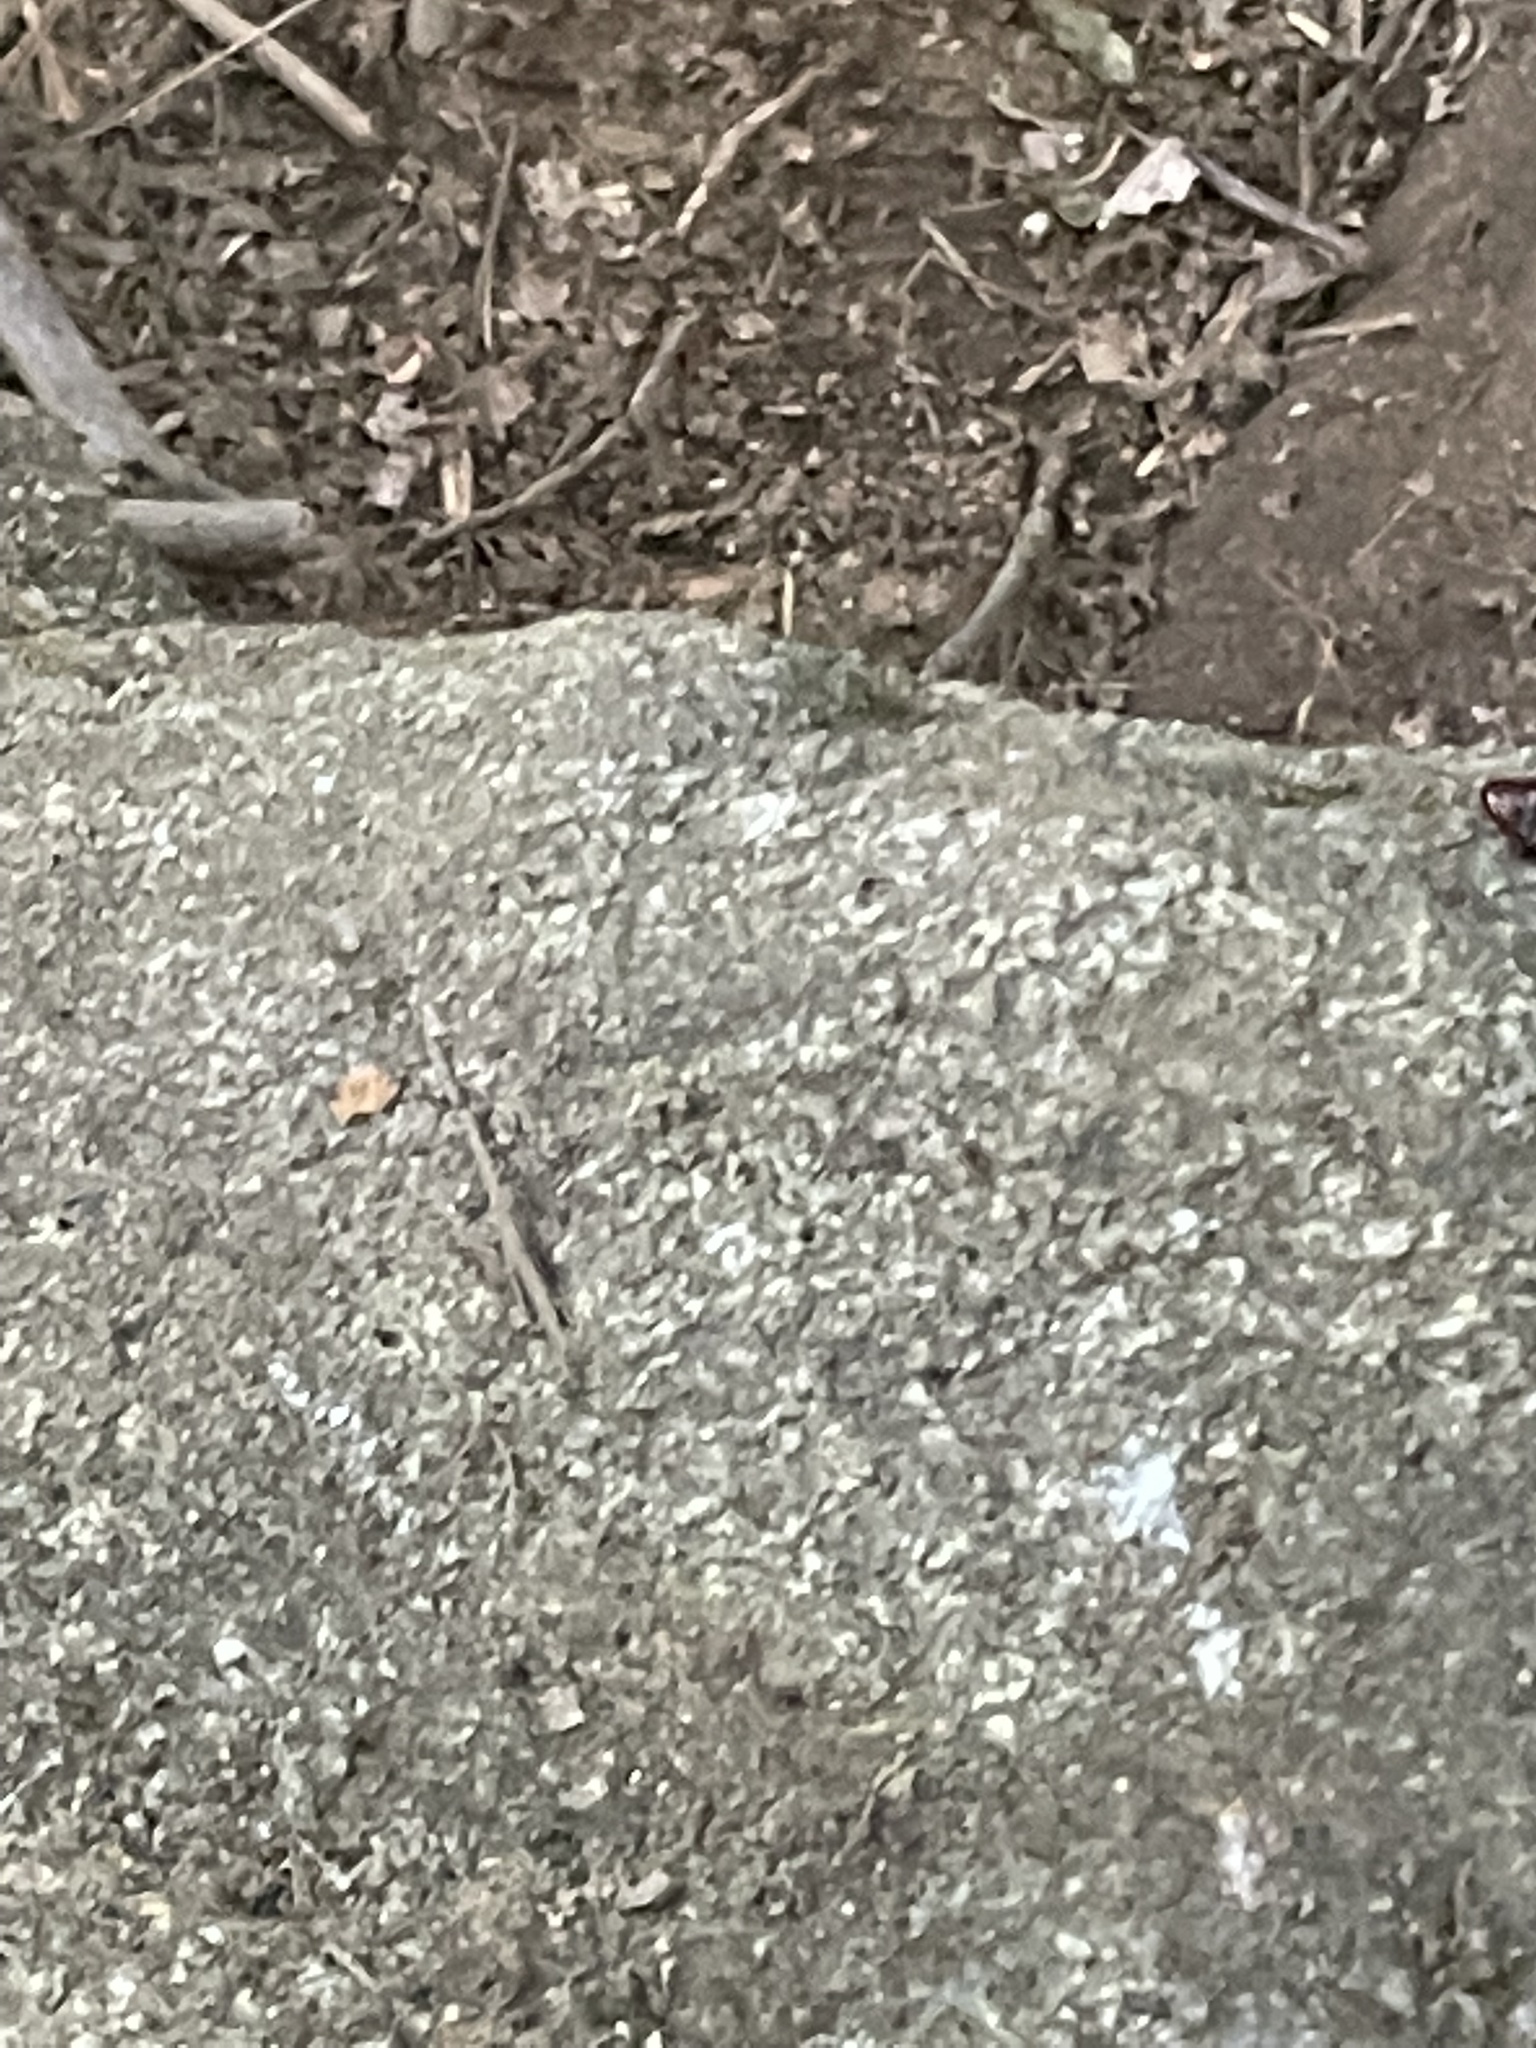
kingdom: Animalia
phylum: Arthropoda
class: Insecta
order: Blattodea
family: Cryptocercidae
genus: Cryptocercus
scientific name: Cryptocercus garciai
